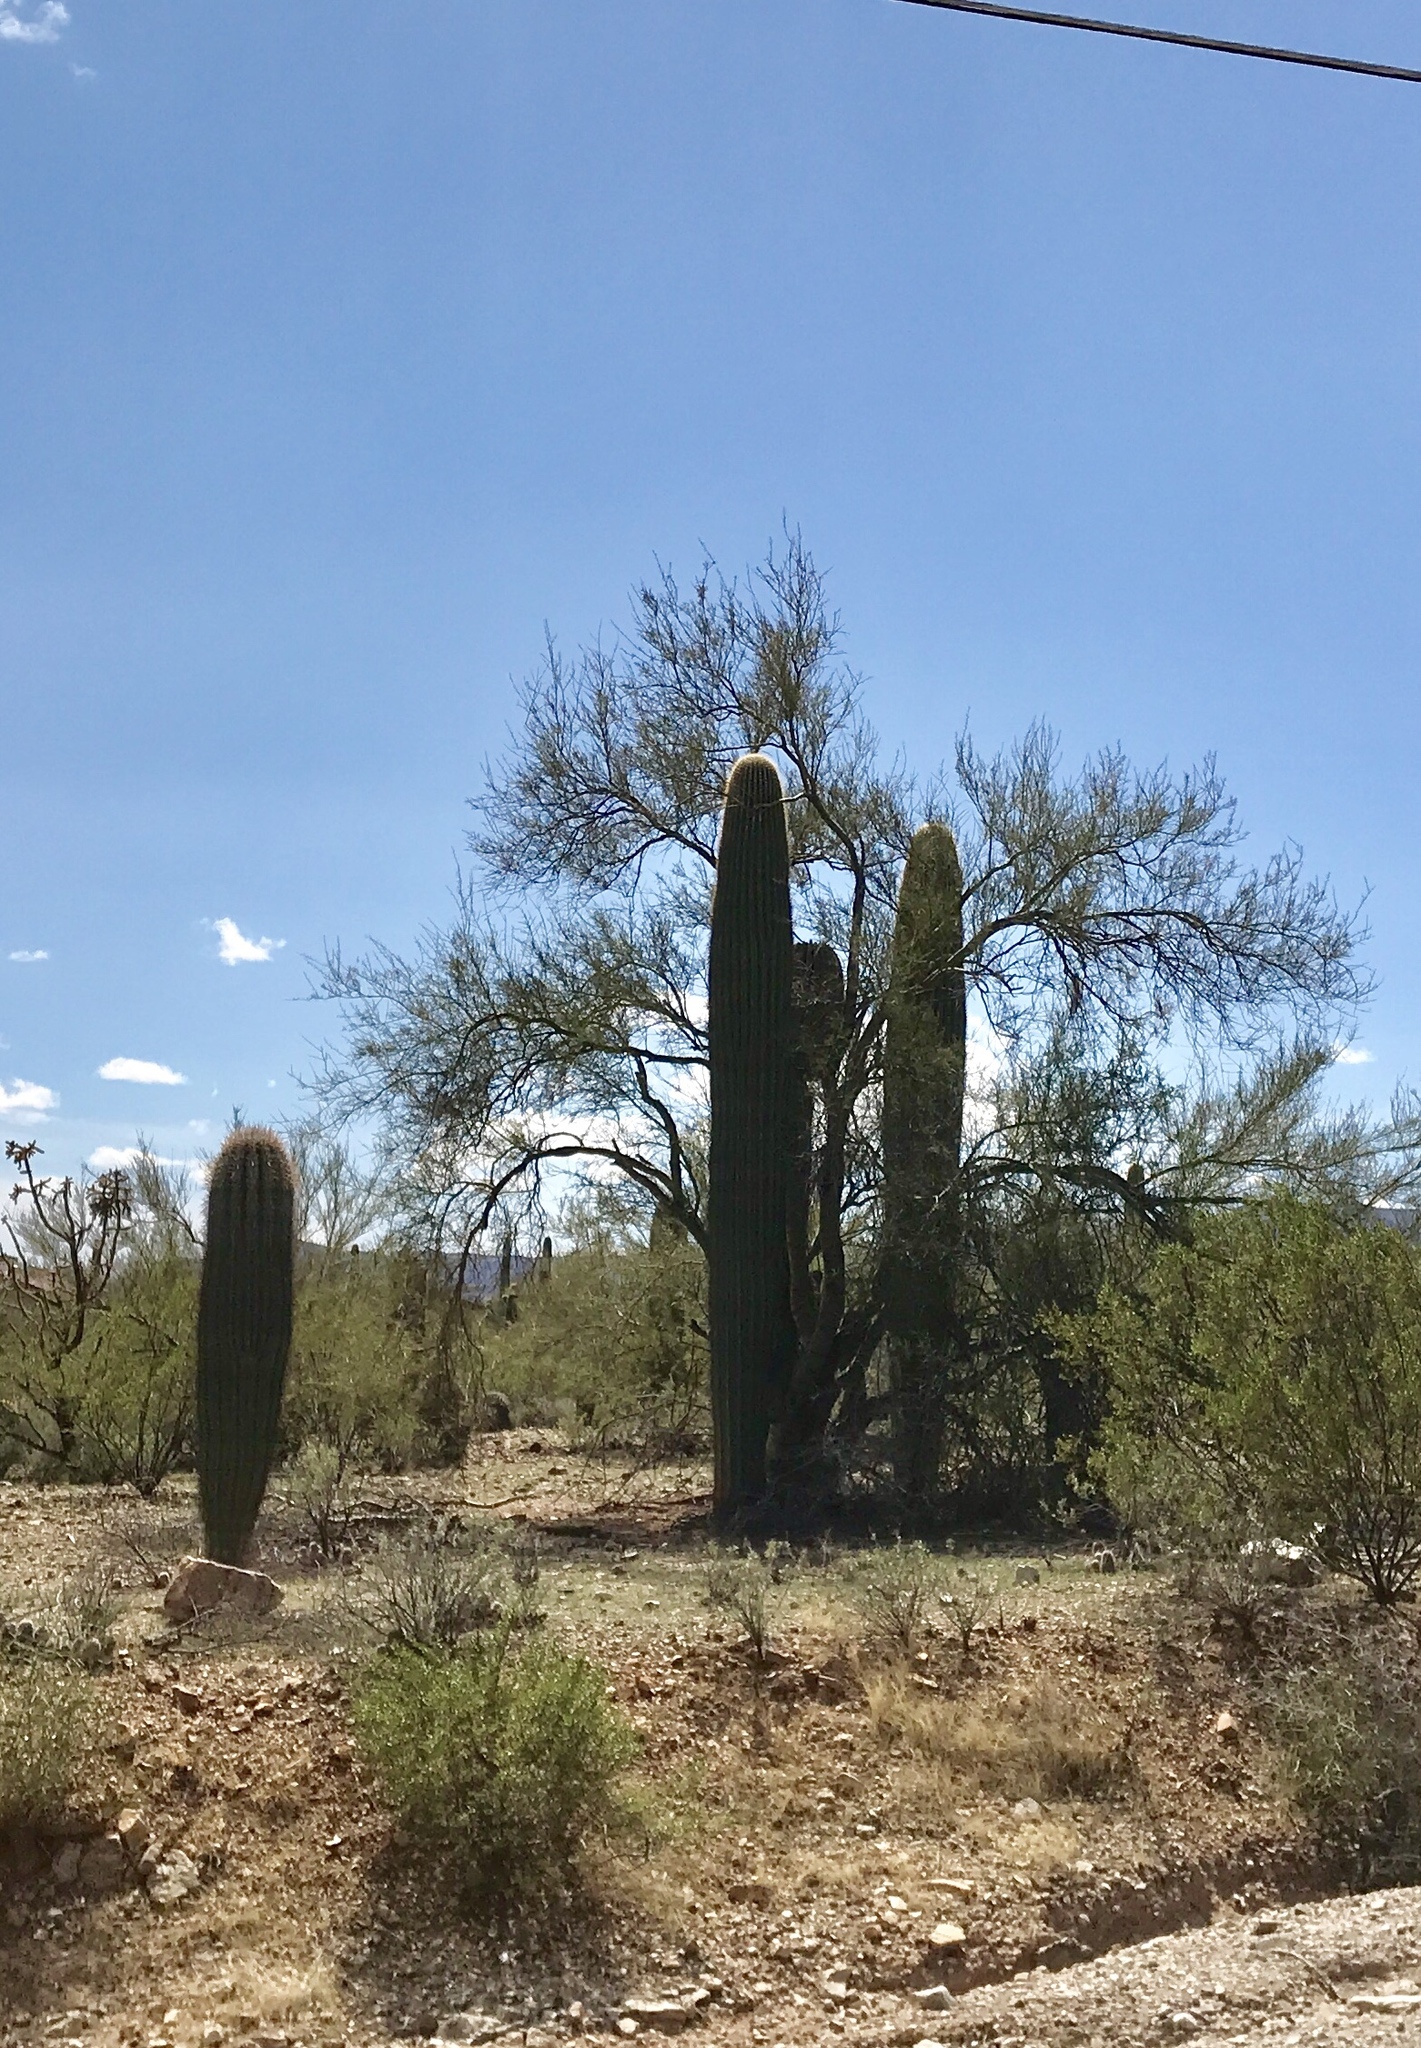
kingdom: Plantae
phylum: Tracheophyta
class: Magnoliopsida
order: Caryophyllales
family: Cactaceae
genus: Carnegiea
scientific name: Carnegiea gigantea
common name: Saguaro
